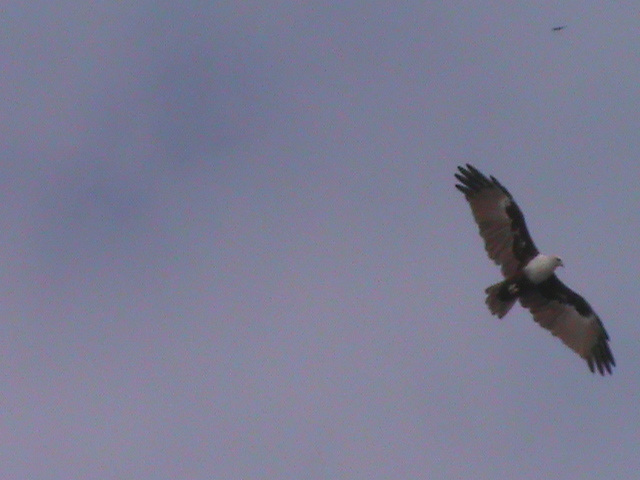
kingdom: Animalia
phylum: Chordata
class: Aves
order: Accipitriformes
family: Accipitridae
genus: Haliastur
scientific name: Haliastur indus
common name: Brahminy kite
